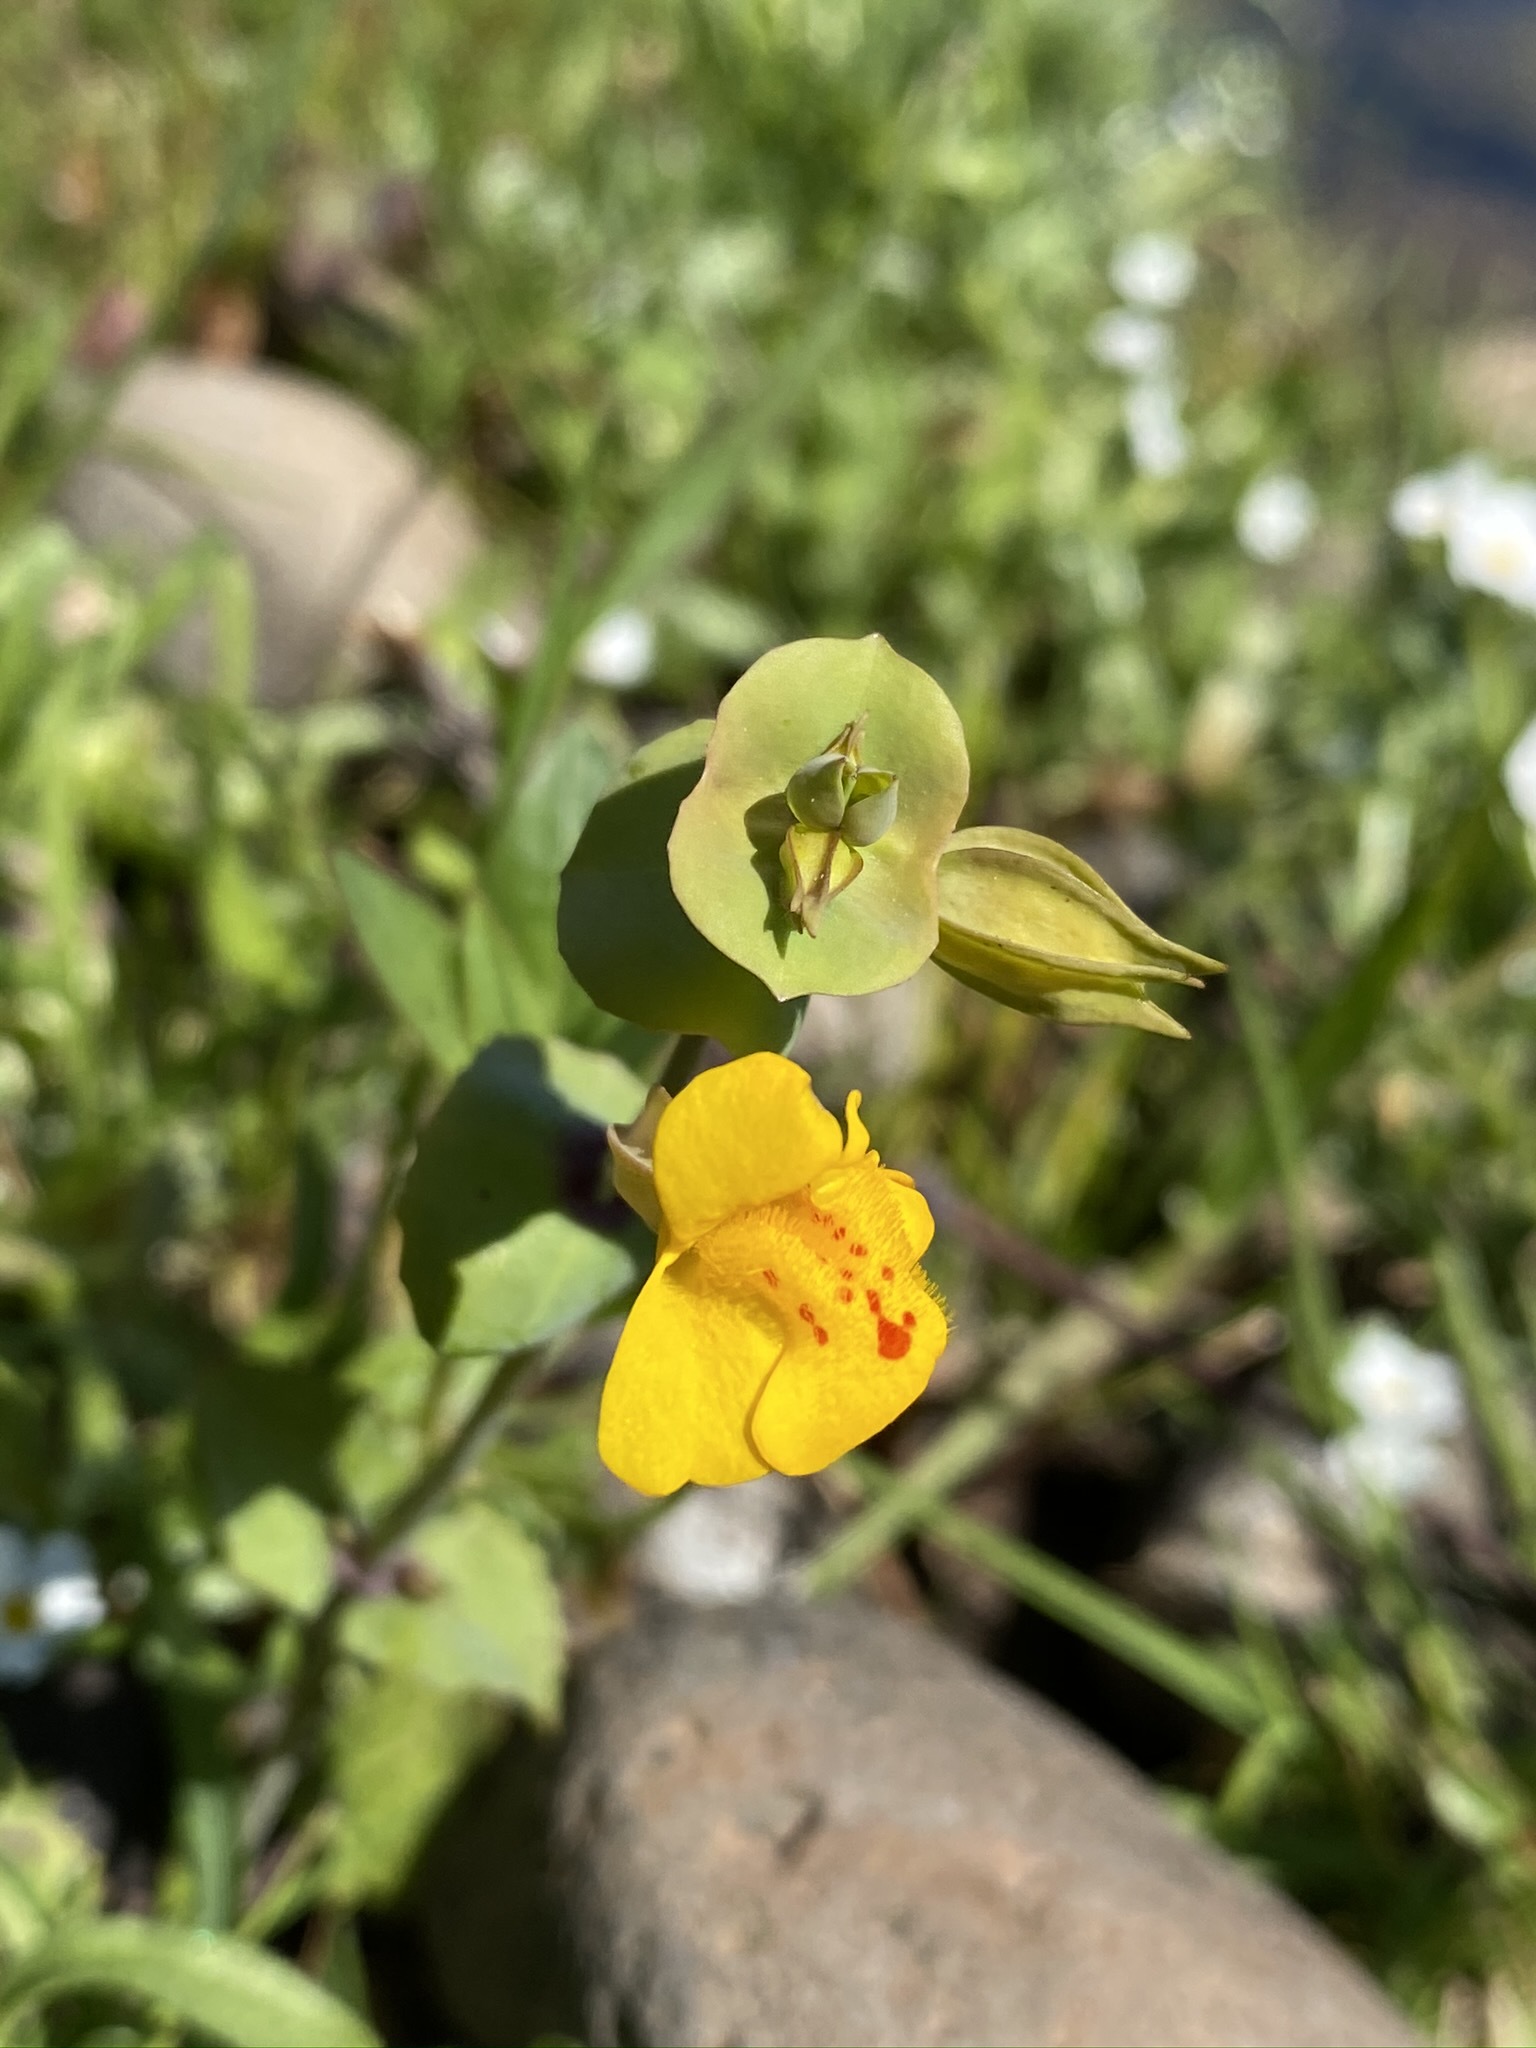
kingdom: Plantae
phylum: Tracheophyta
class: Magnoliopsida
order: Lamiales
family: Phrymaceae
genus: Erythranthe
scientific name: Erythranthe glaucescens
